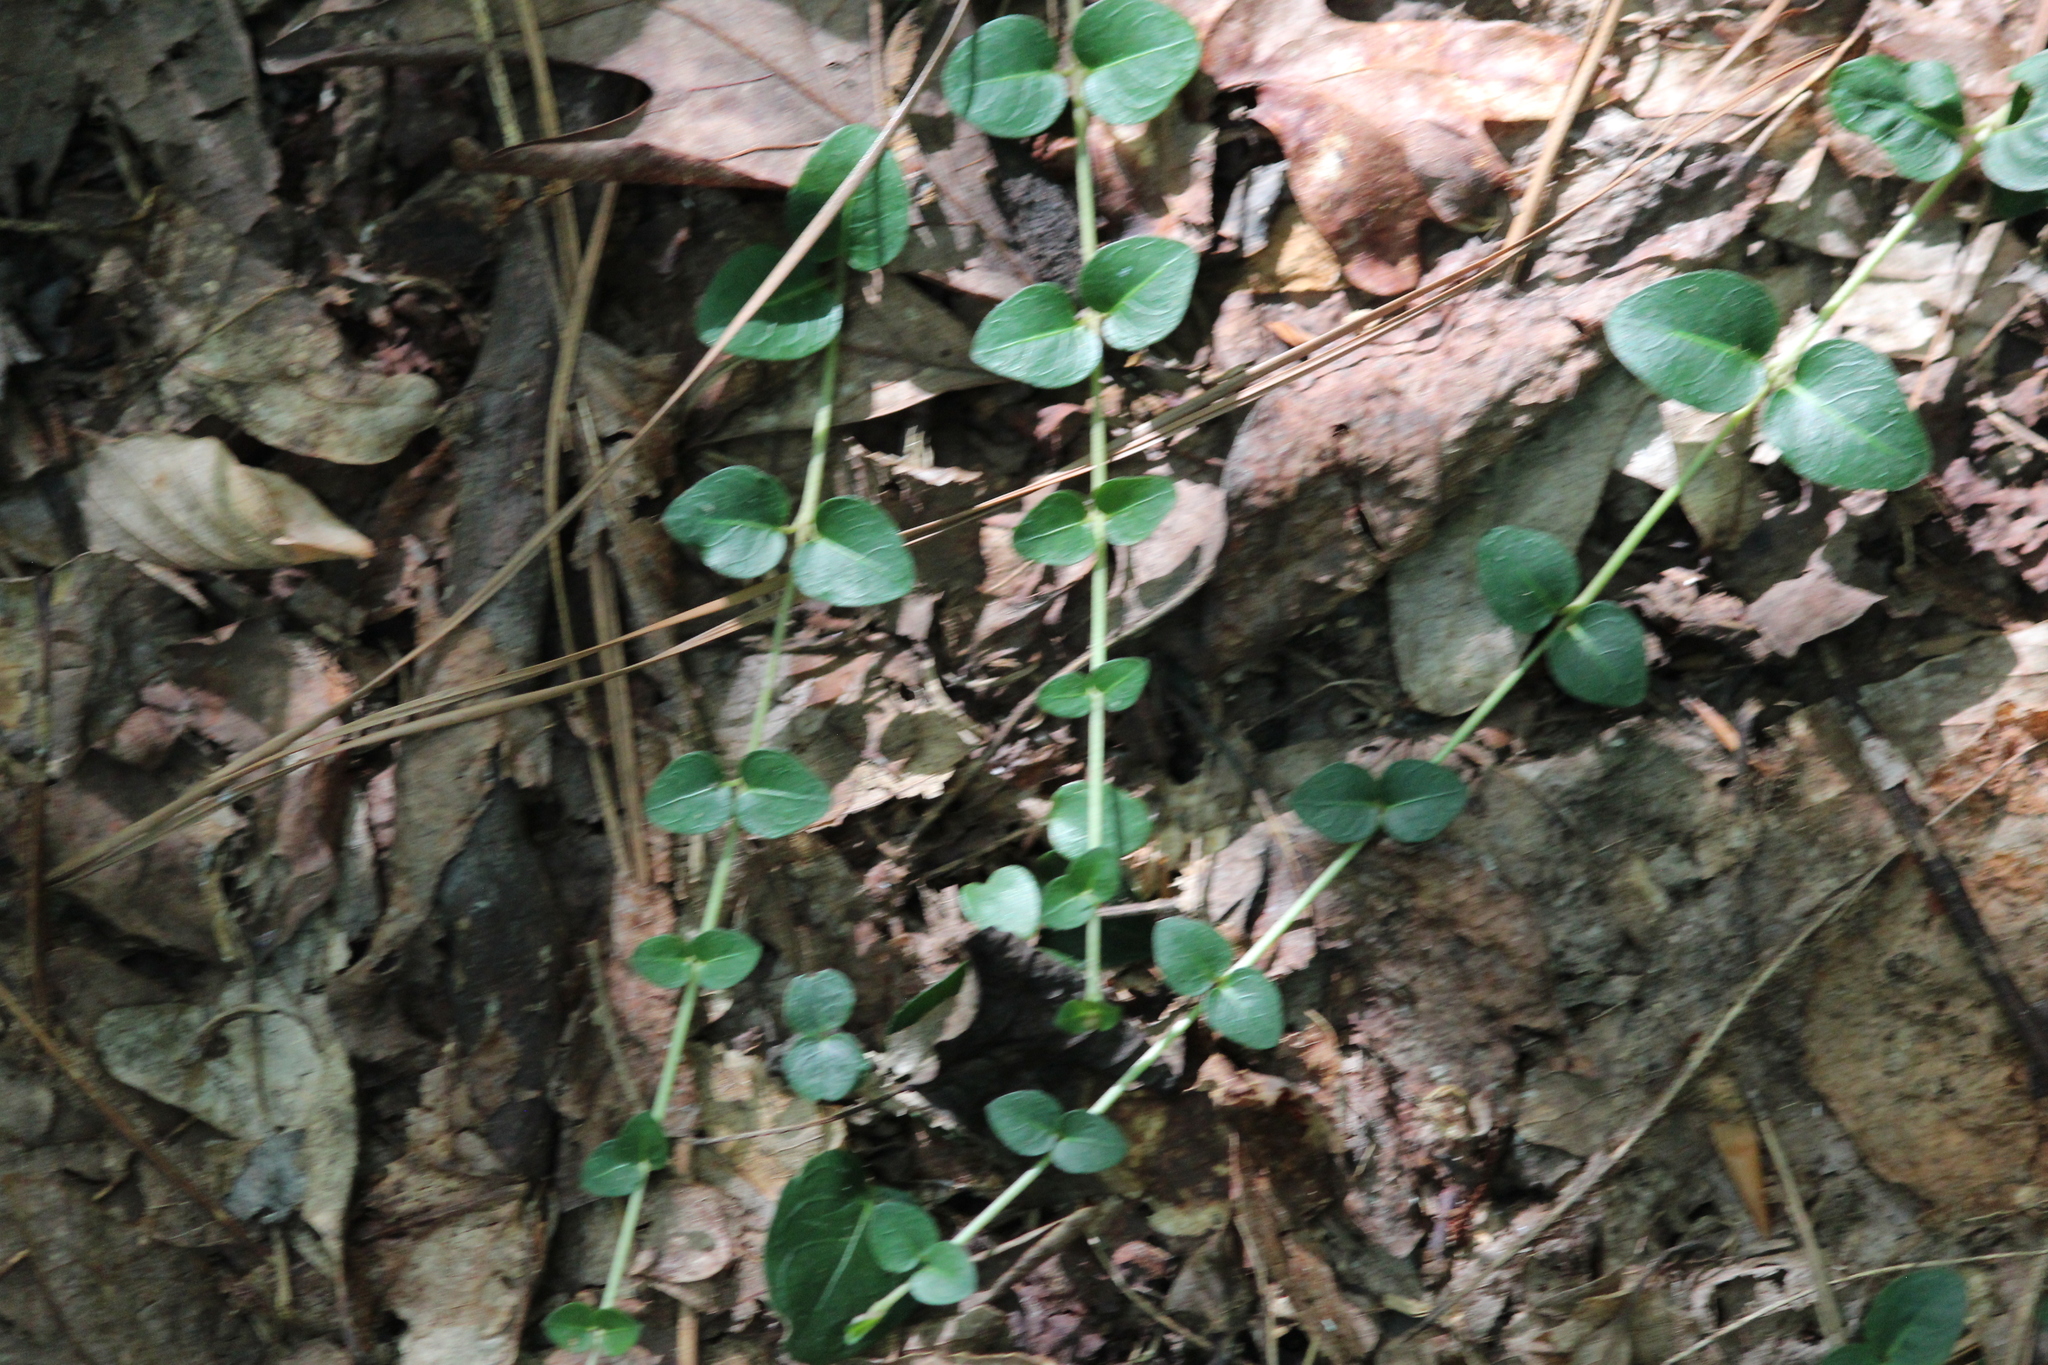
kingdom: Plantae
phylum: Tracheophyta
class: Magnoliopsida
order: Gentianales
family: Rubiaceae
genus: Mitchella
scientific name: Mitchella repens
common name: Partridge-berry
